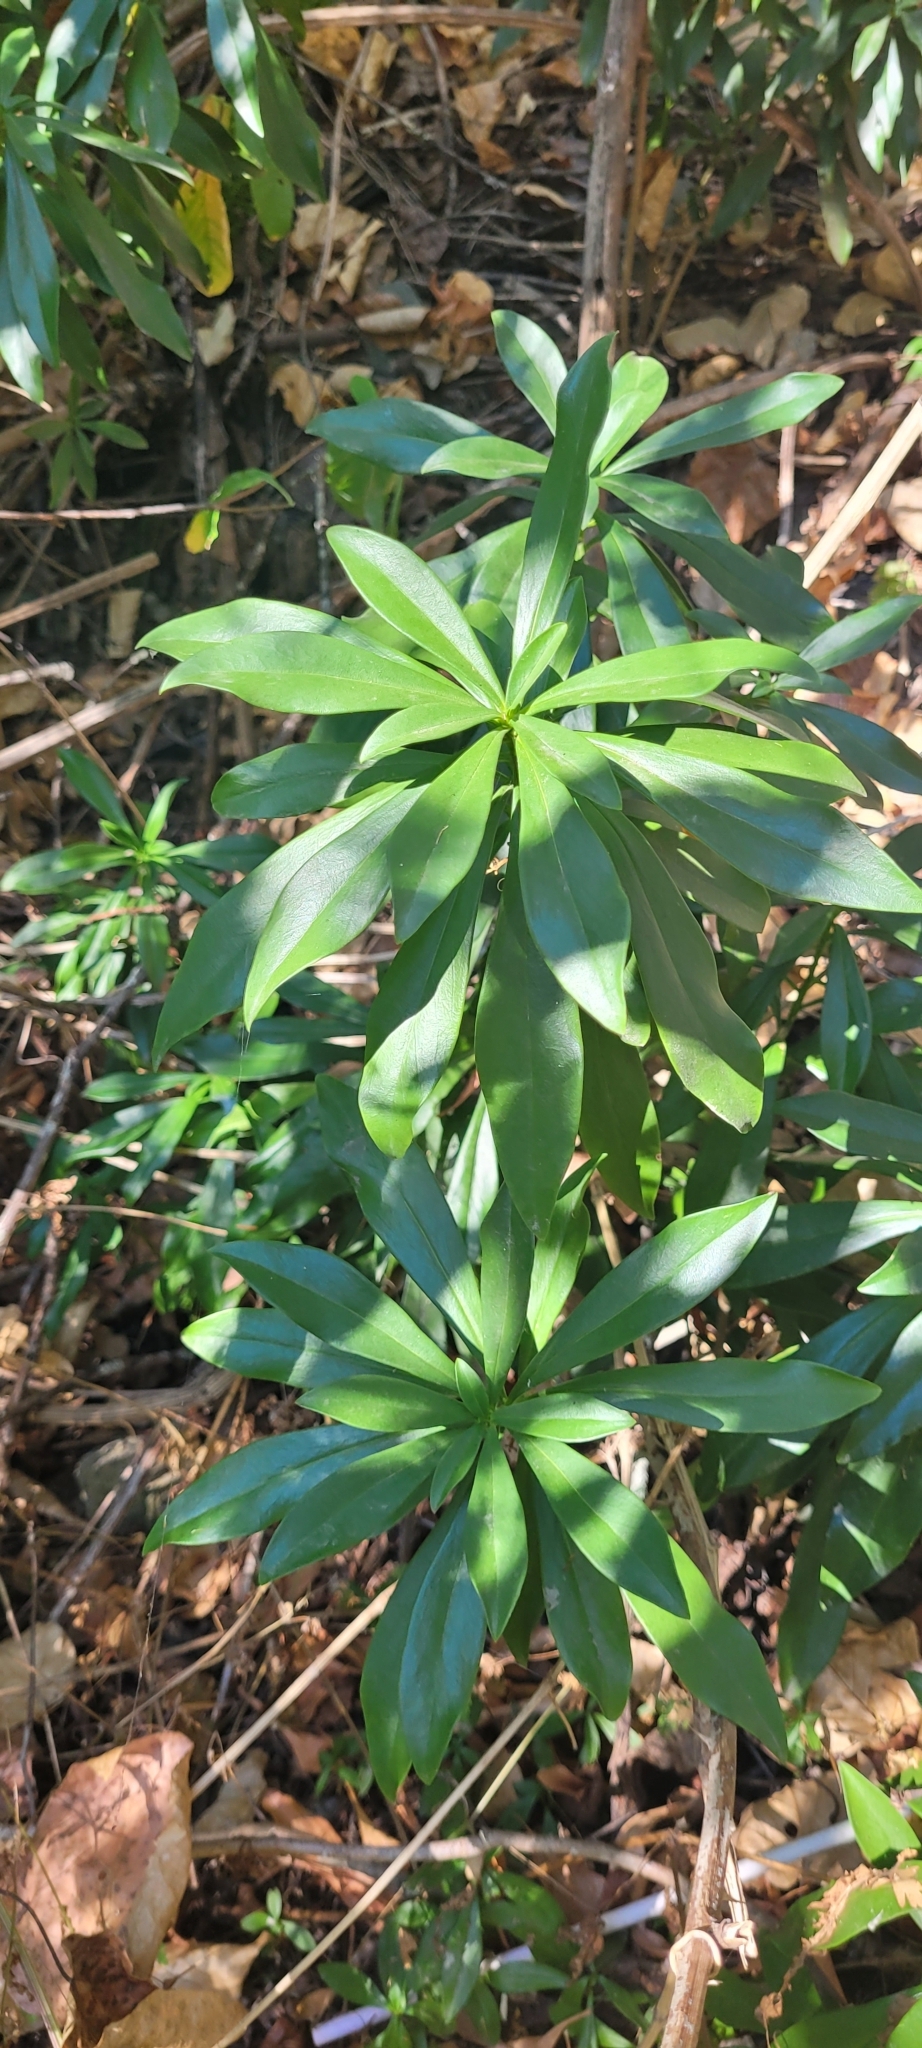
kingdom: Plantae
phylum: Tracheophyta
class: Magnoliopsida
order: Malvales
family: Thymelaeaceae
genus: Daphne
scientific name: Daphne laureola
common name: Spurge-laurel
